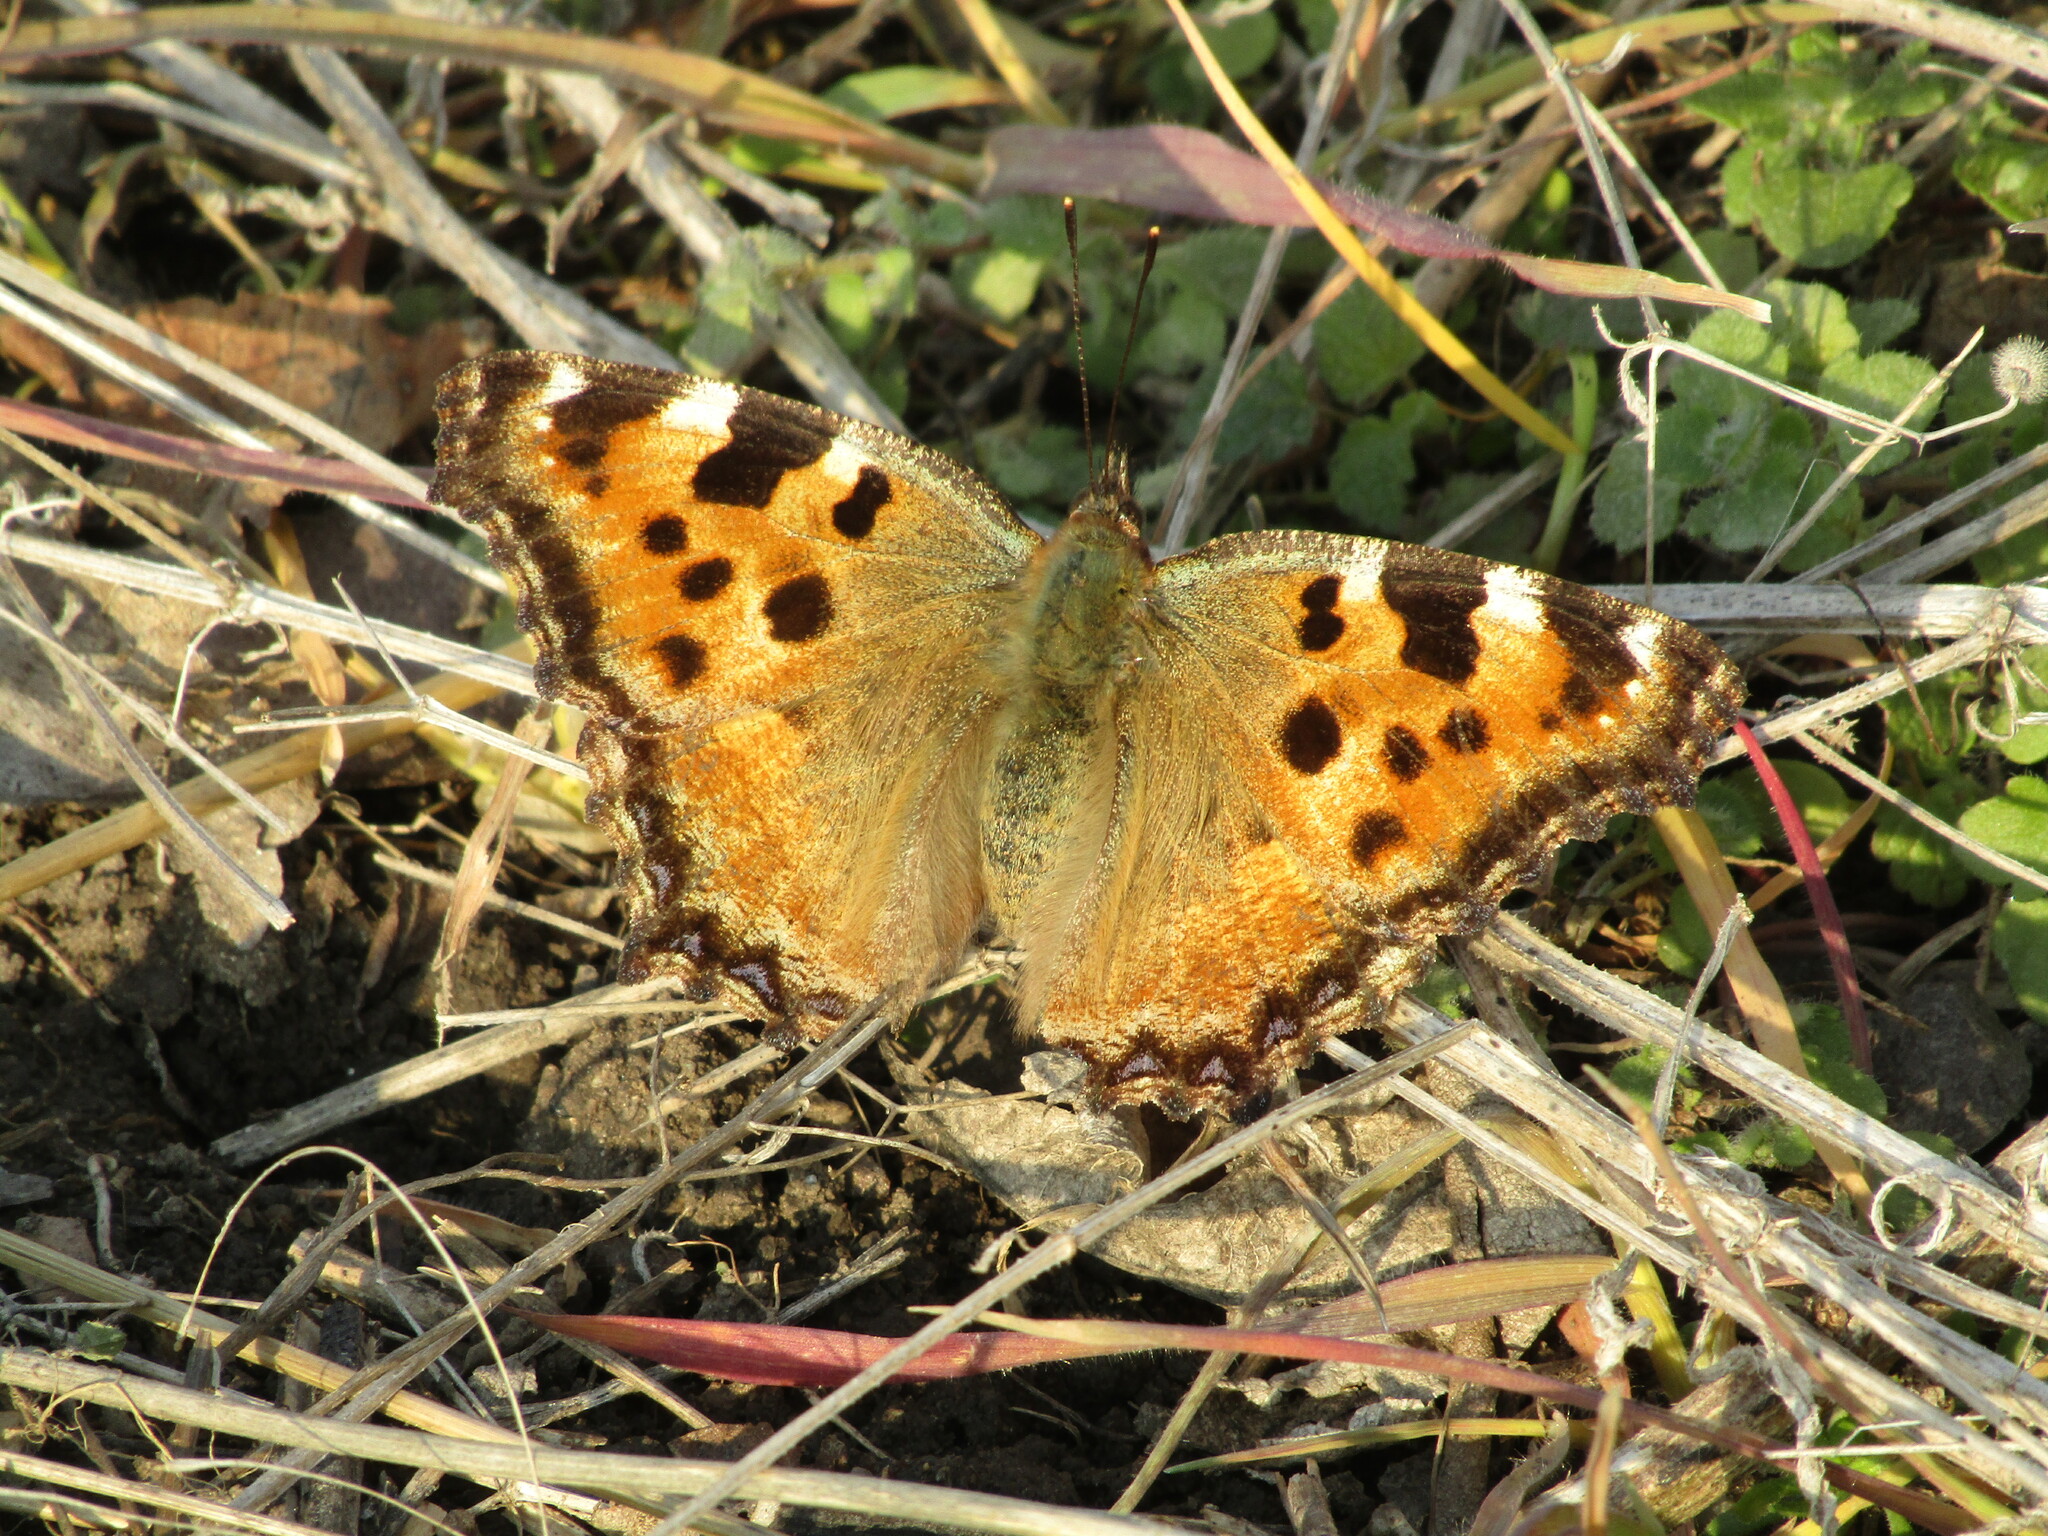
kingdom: Animalia
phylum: Arthropoda
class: Insecta
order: Lepidoptera
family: Nymphalidae
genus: Nymphalis
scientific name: Nymphalis polychloros
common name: Large tortoiseshell
